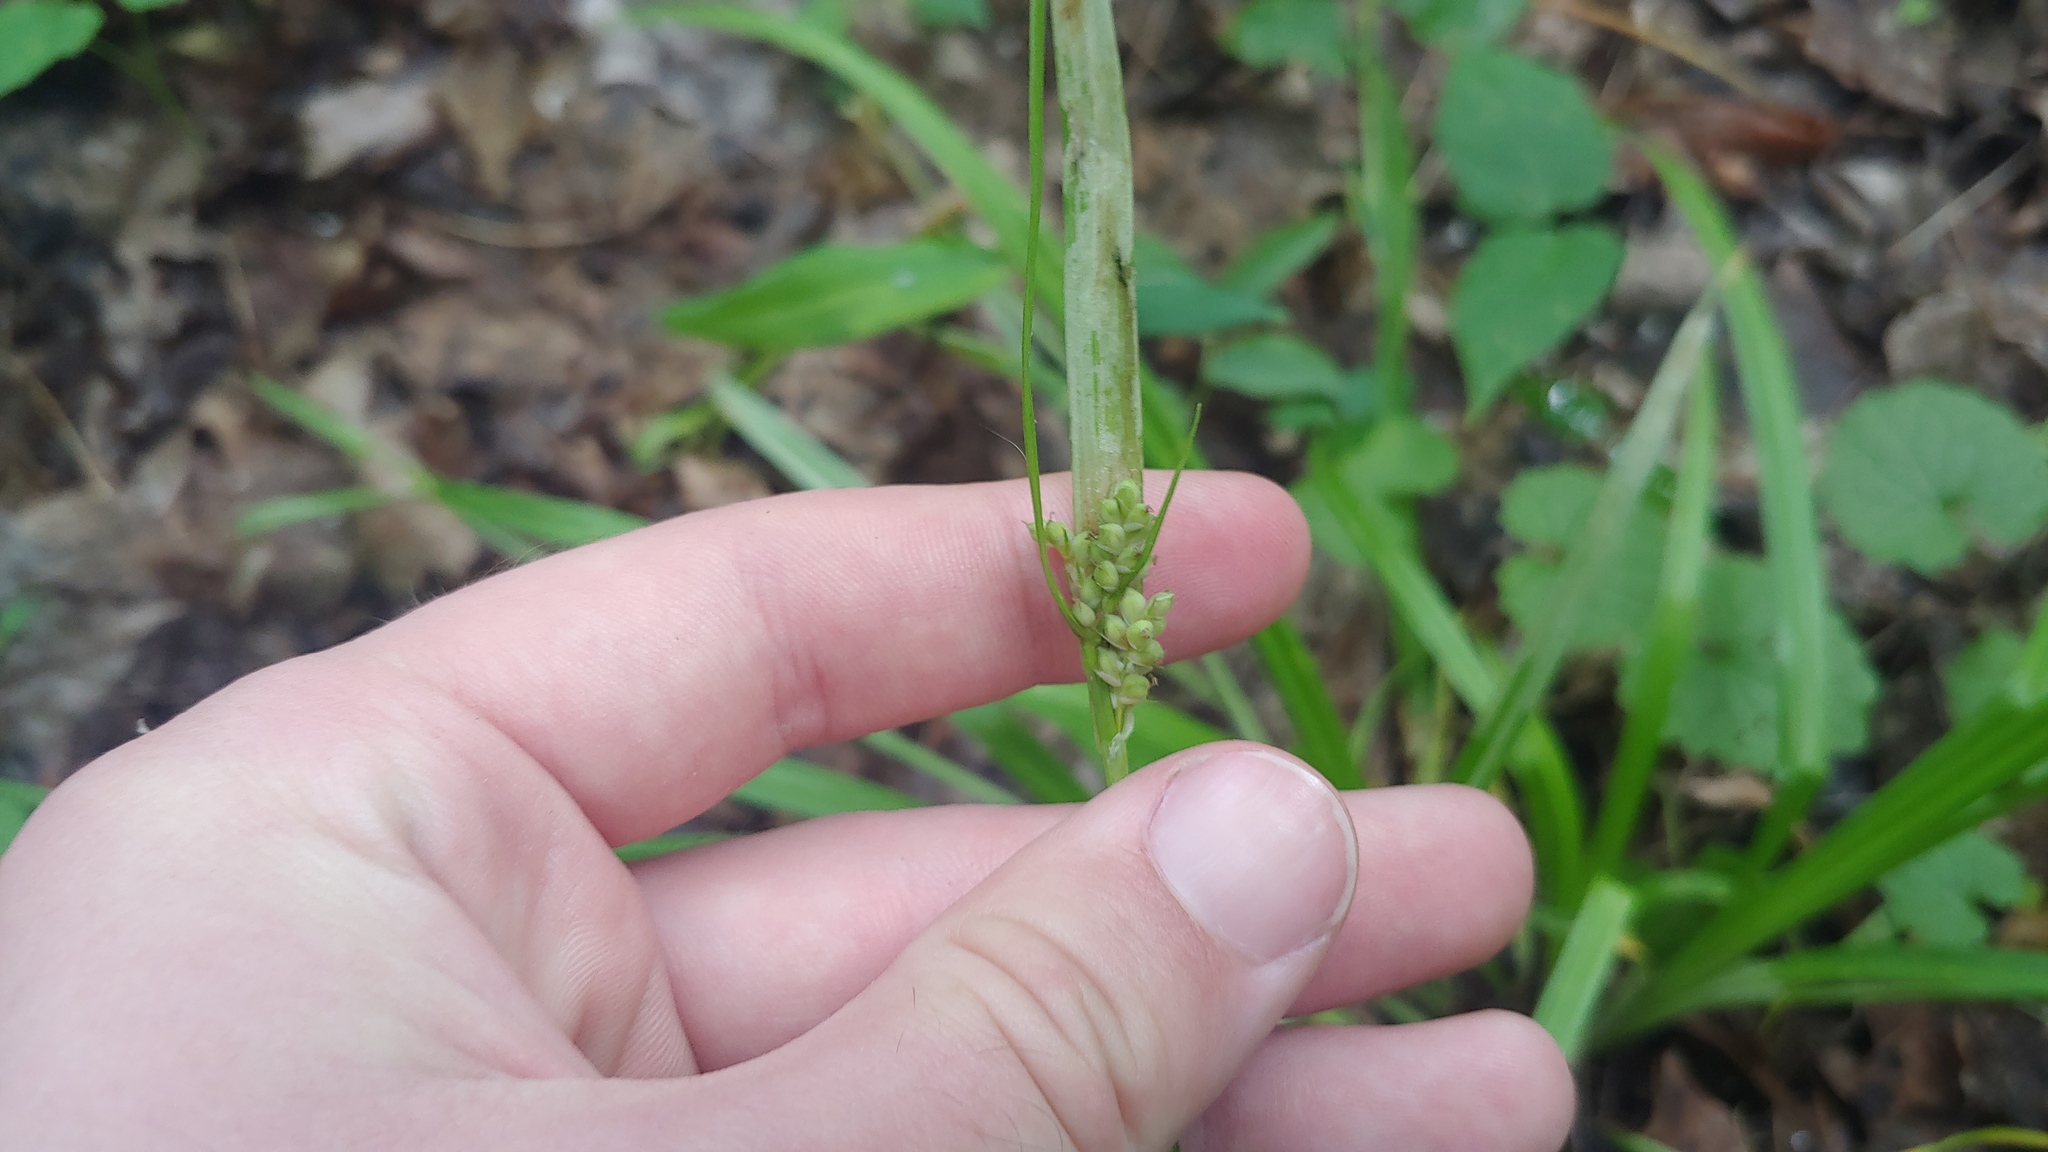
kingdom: Plantae
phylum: Tracheophyta
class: Liliopsida
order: Poales
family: Cyperaceae
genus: Carex
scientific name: Carex blanda
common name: Bland sedge
